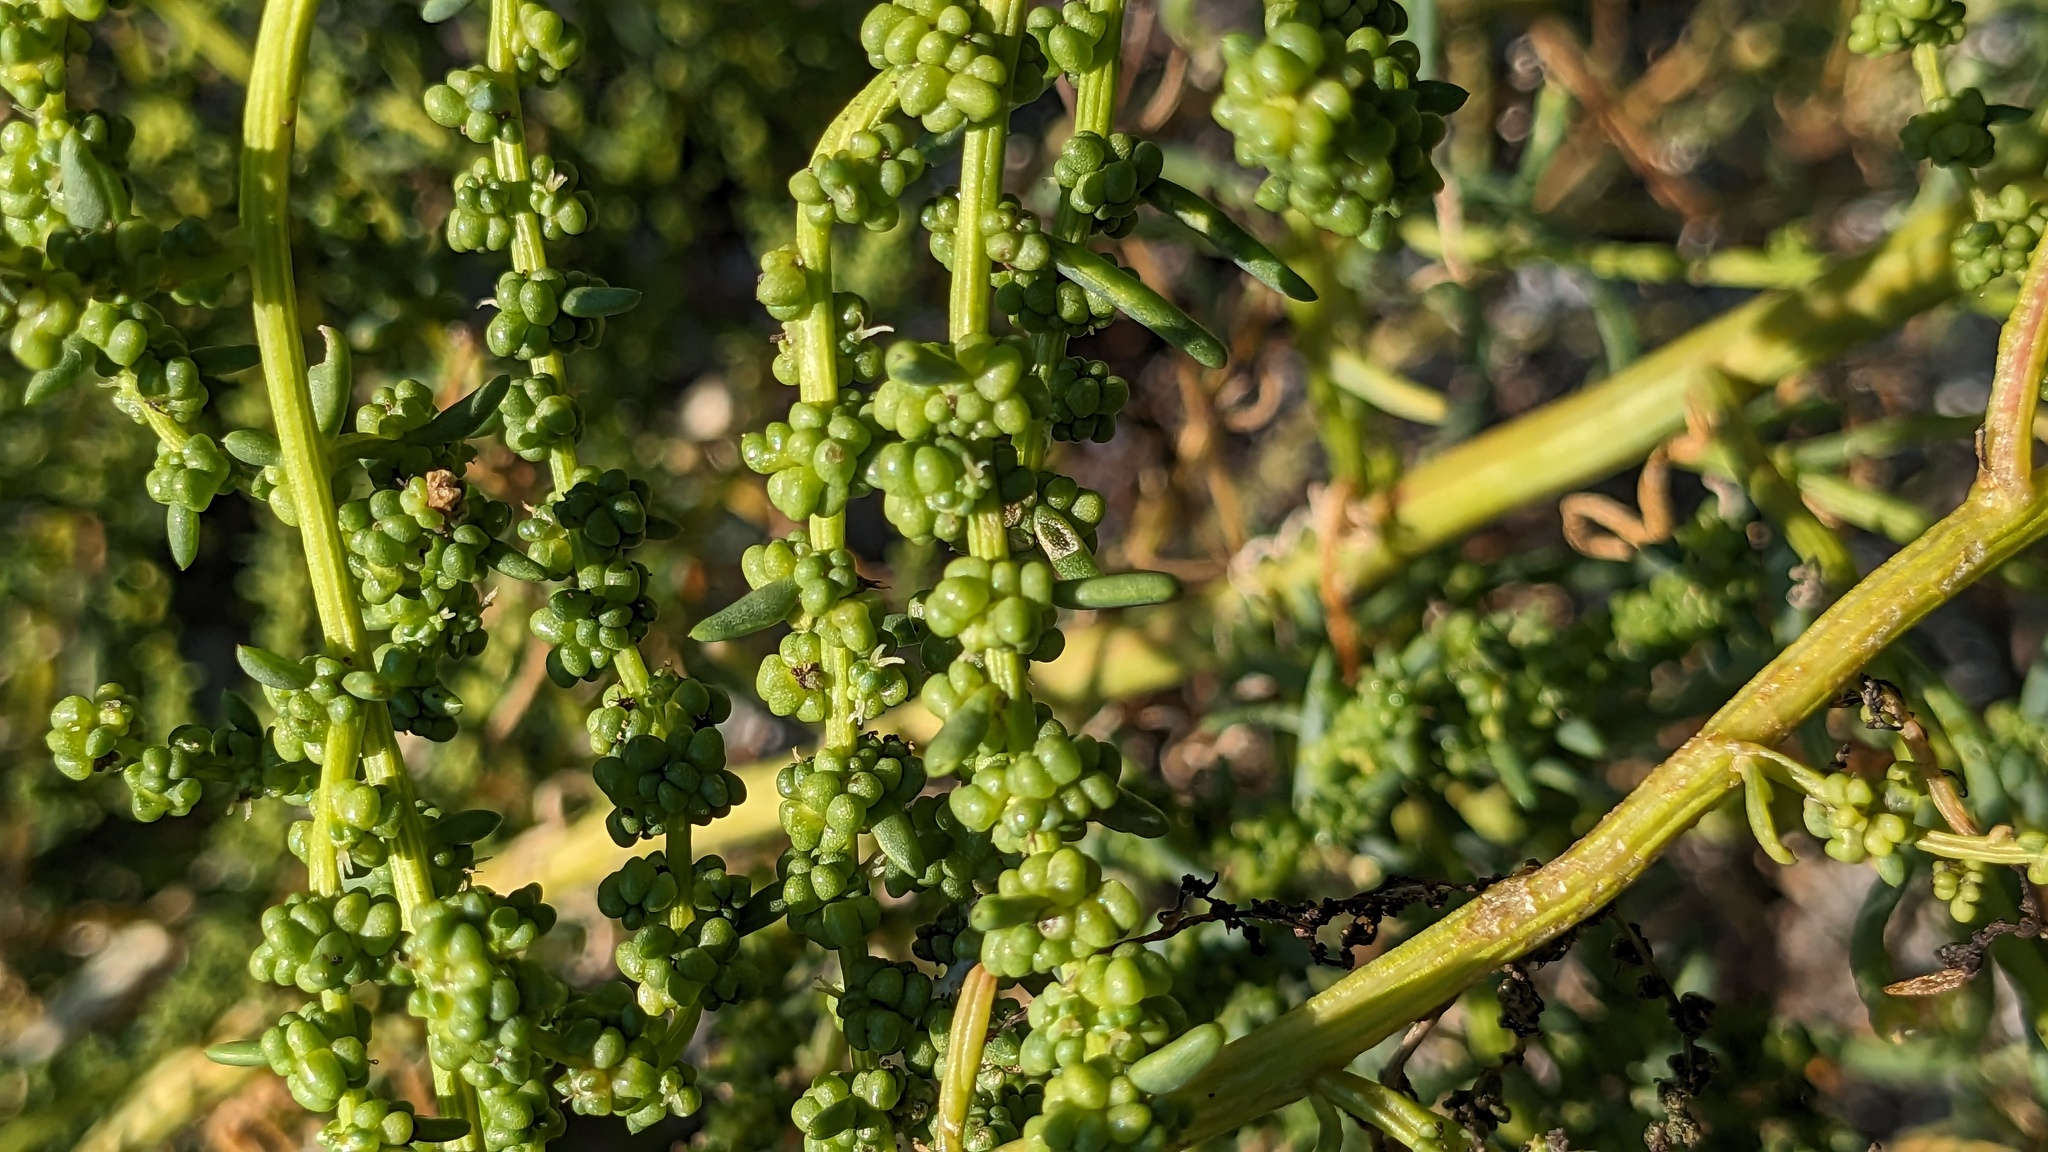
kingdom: Plantae
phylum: Tracheophyta
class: Magnoliopsida
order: Caryophyllales
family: Amaranthaceae
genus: Suaeda
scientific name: Suaeda linearis
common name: Annual seepweed
